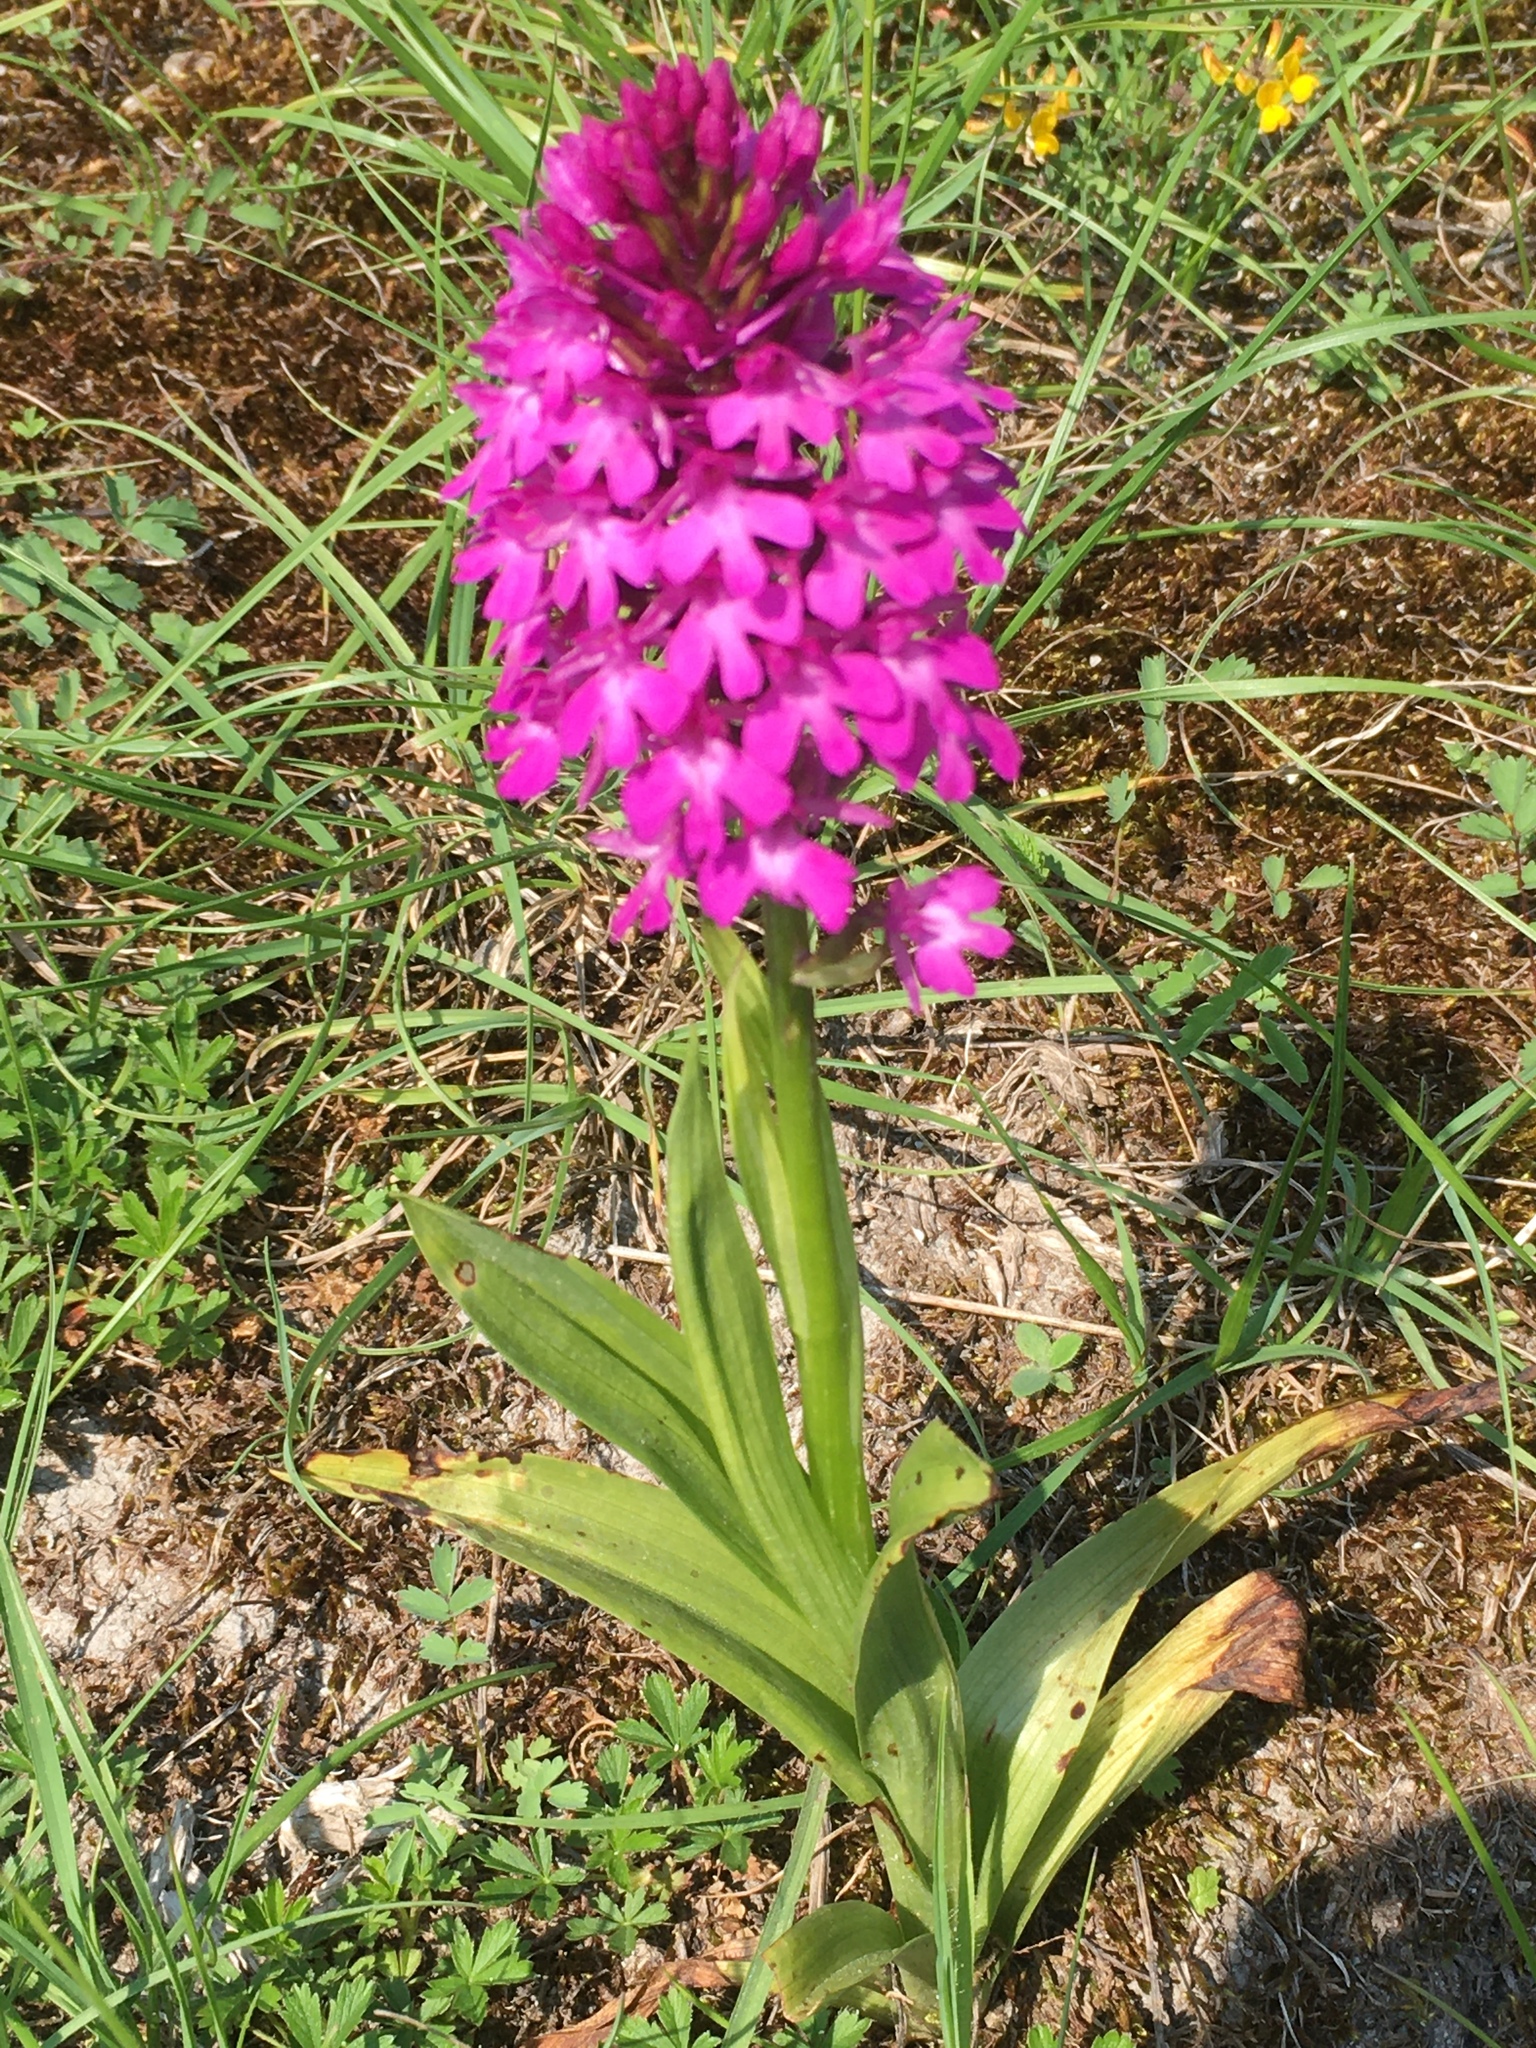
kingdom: Plantae
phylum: Tracheophyta
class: Liliopsida
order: Asparagales
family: Orchidaceae
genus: Anacamptis
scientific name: Anacamptis pyramidalis
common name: Pyramidal orchid
